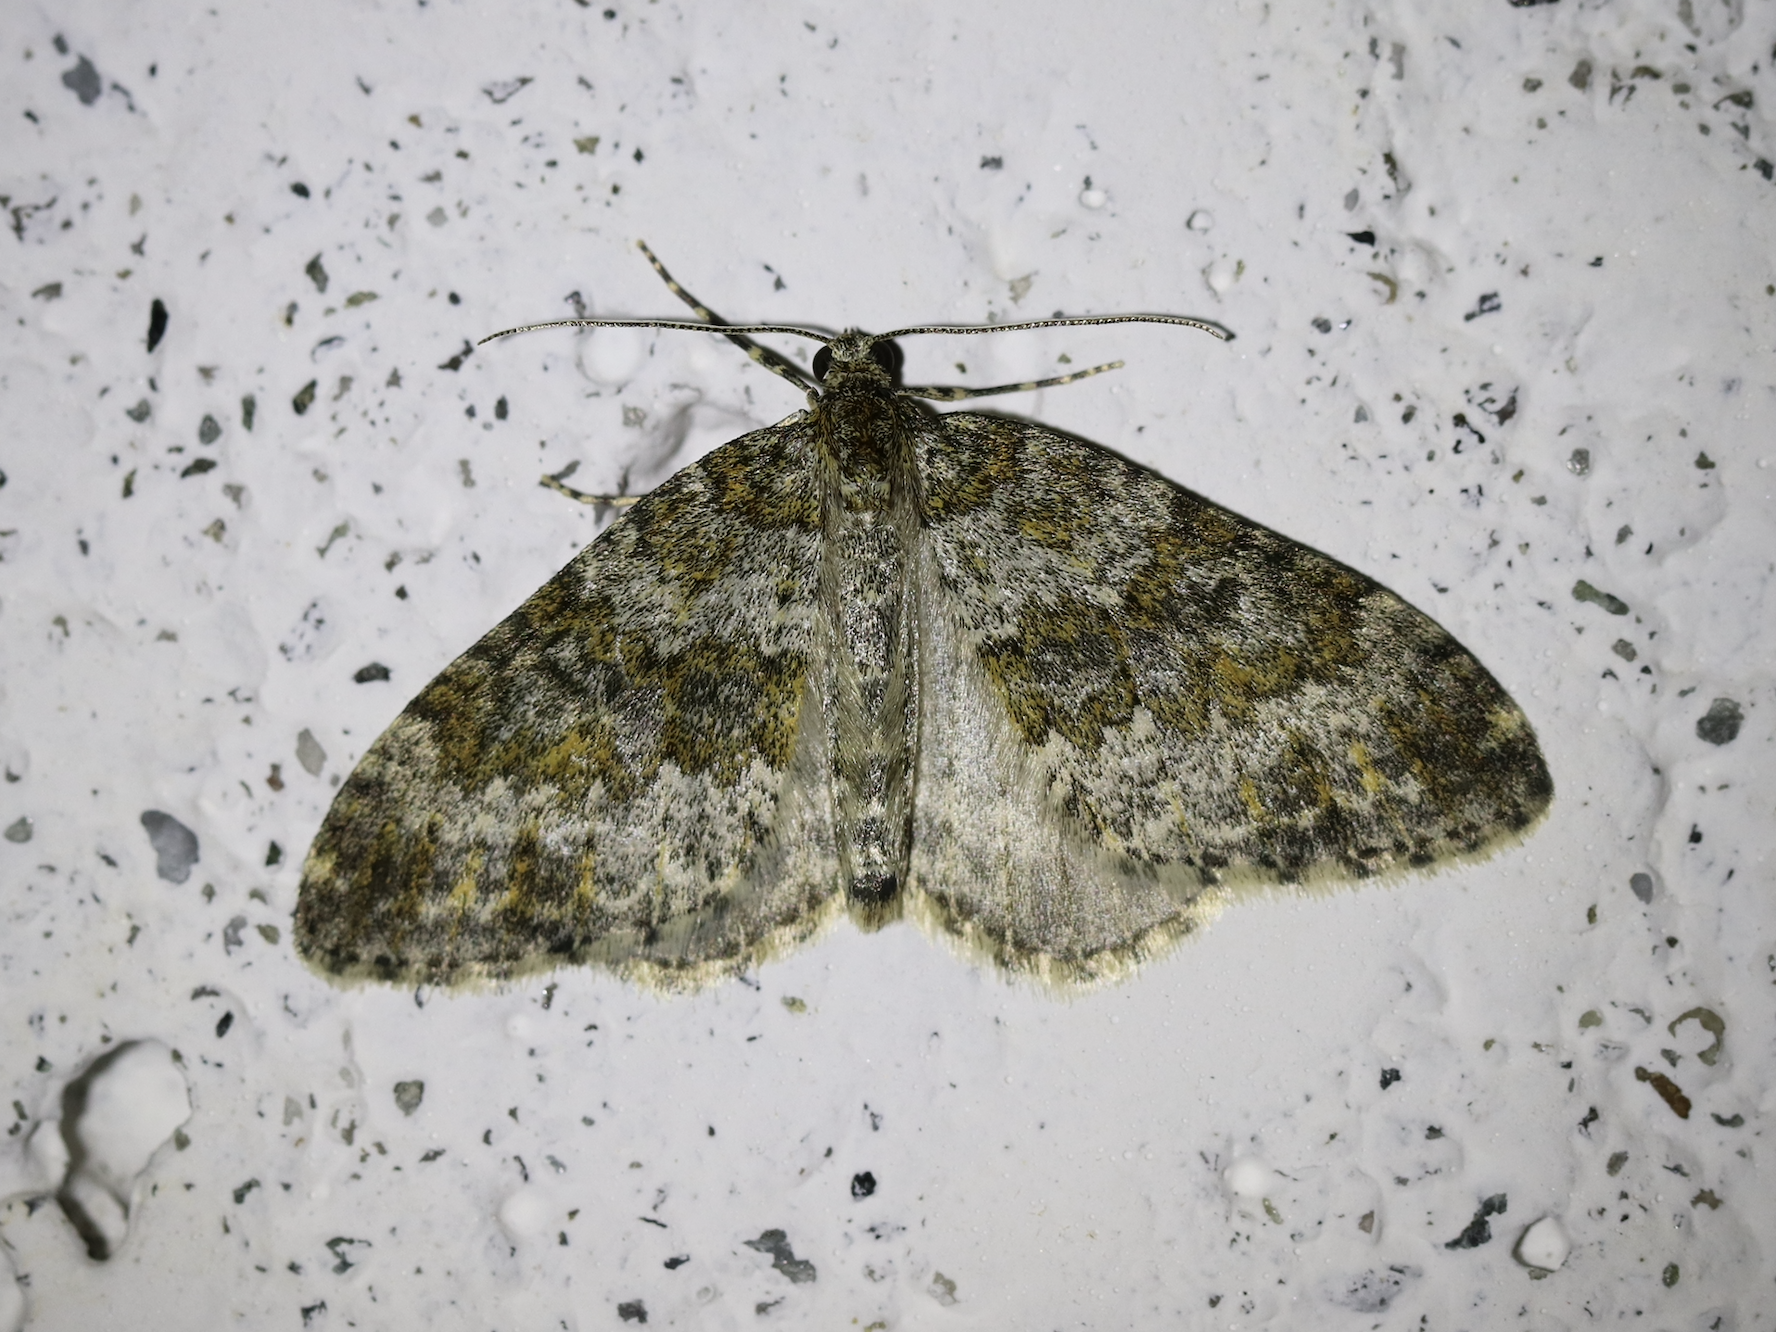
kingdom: Animalia
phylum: Arthropoda
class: Insecta
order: Lepidoptera
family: Geometridae
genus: Entephria
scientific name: Entephria flavicinctata
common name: Yellow-ringed carpet
